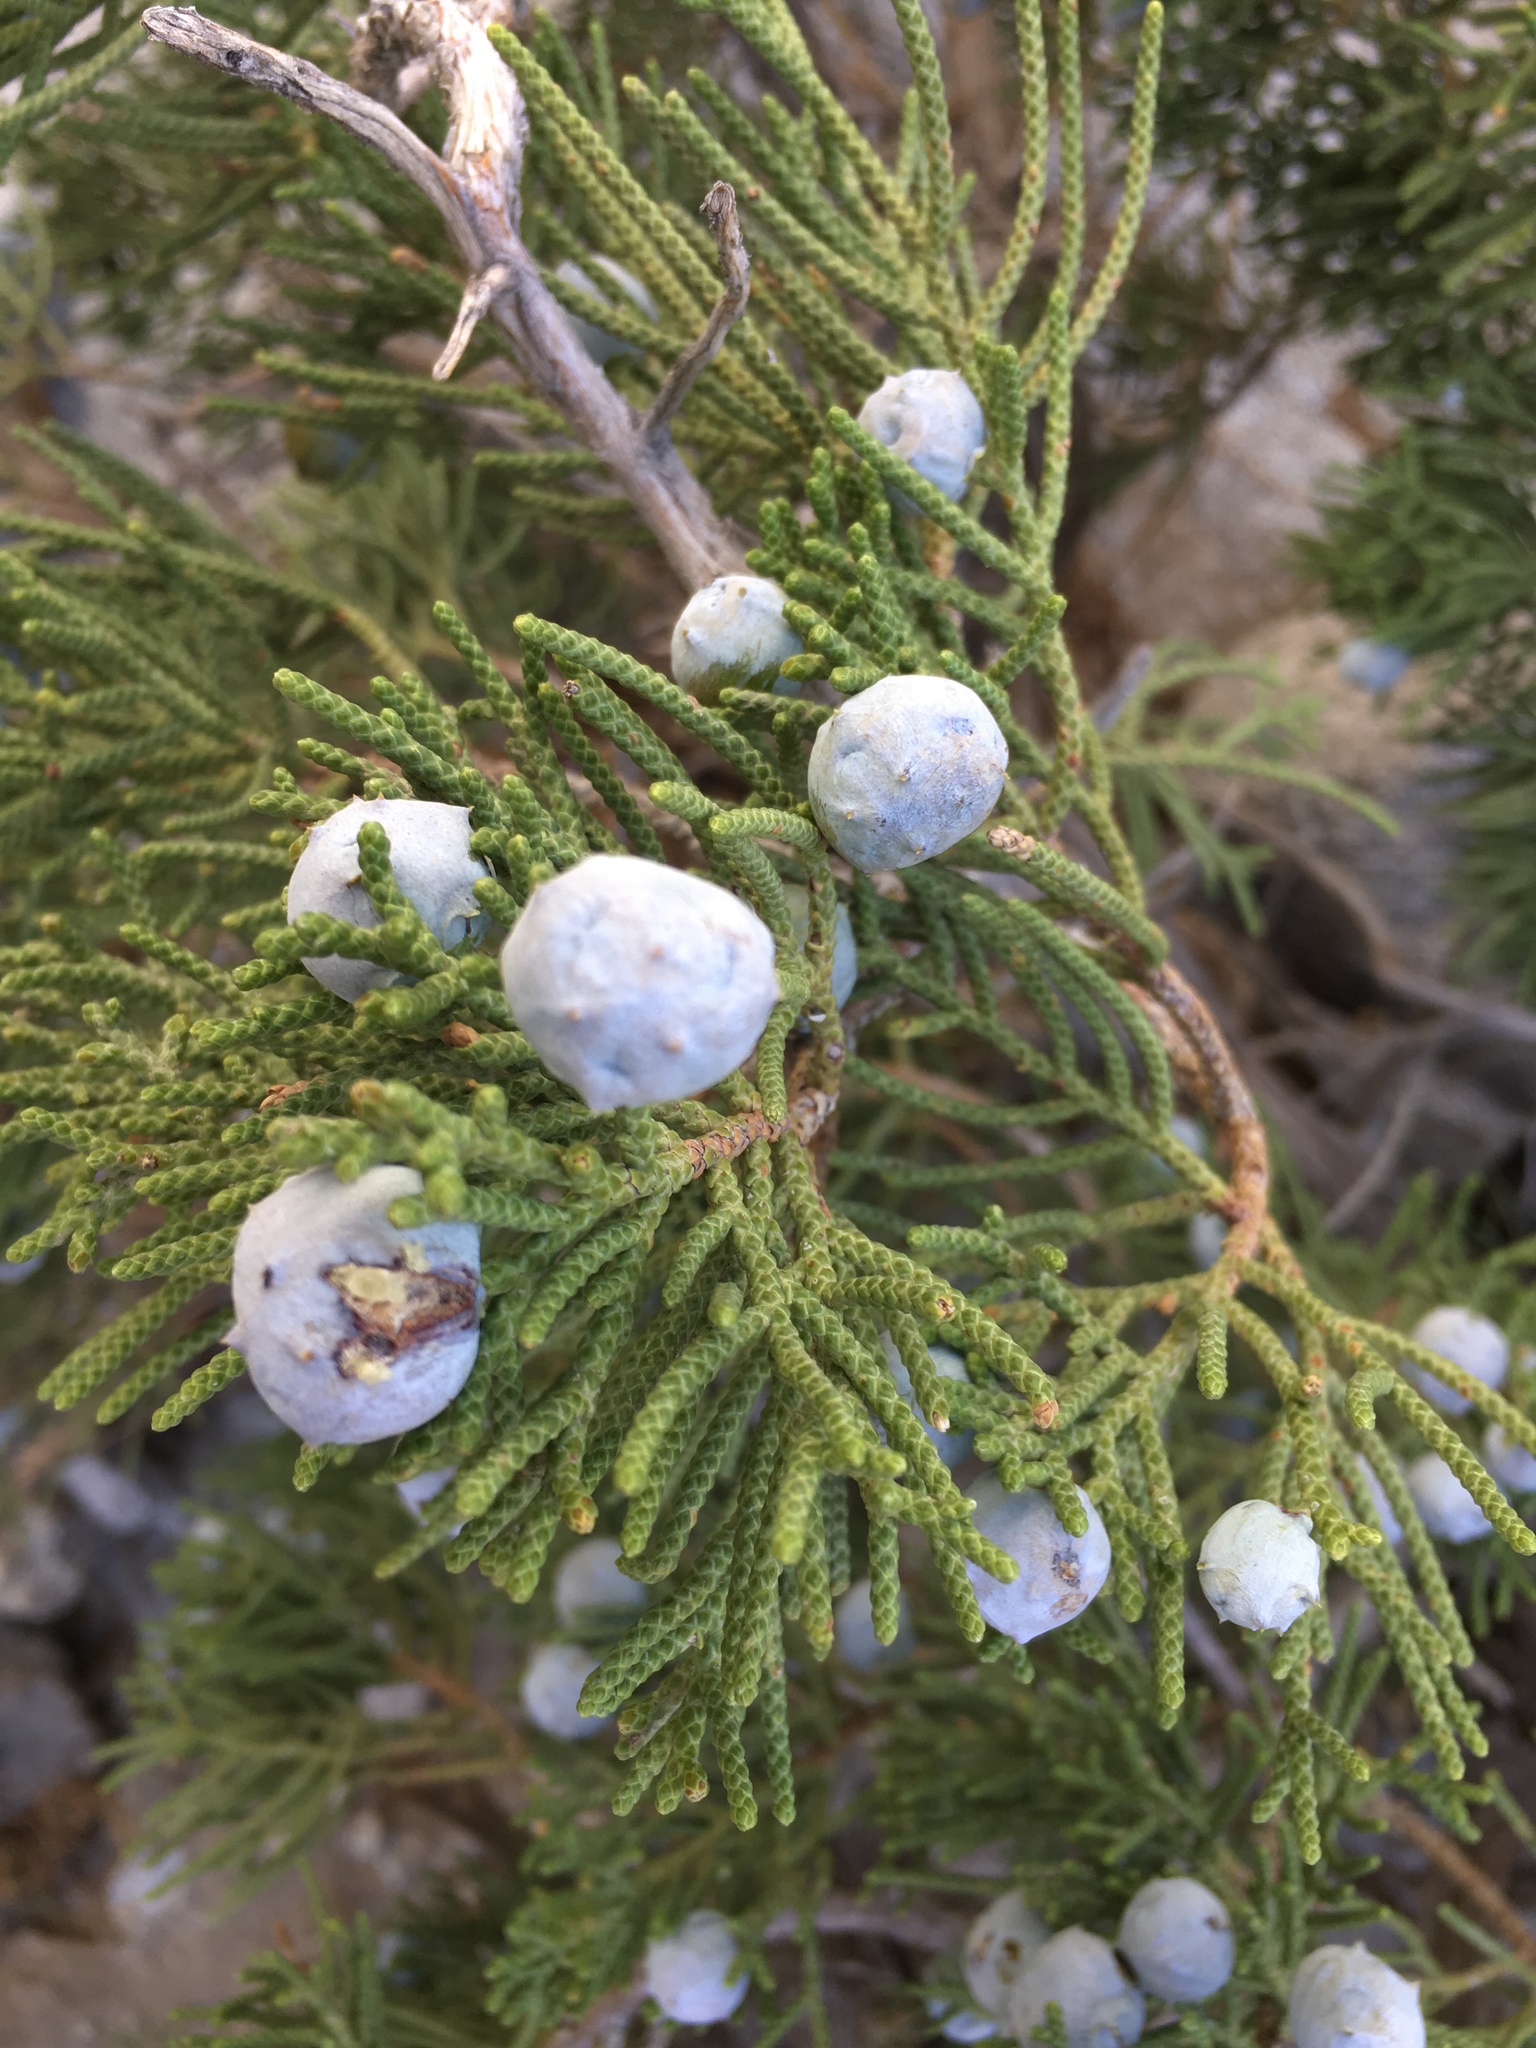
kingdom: Plantae
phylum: Tracheophyta
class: Pinopsida
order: Pinales
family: Cupressaceae
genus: Juniperus
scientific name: Juniperus californica
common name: California juniper
